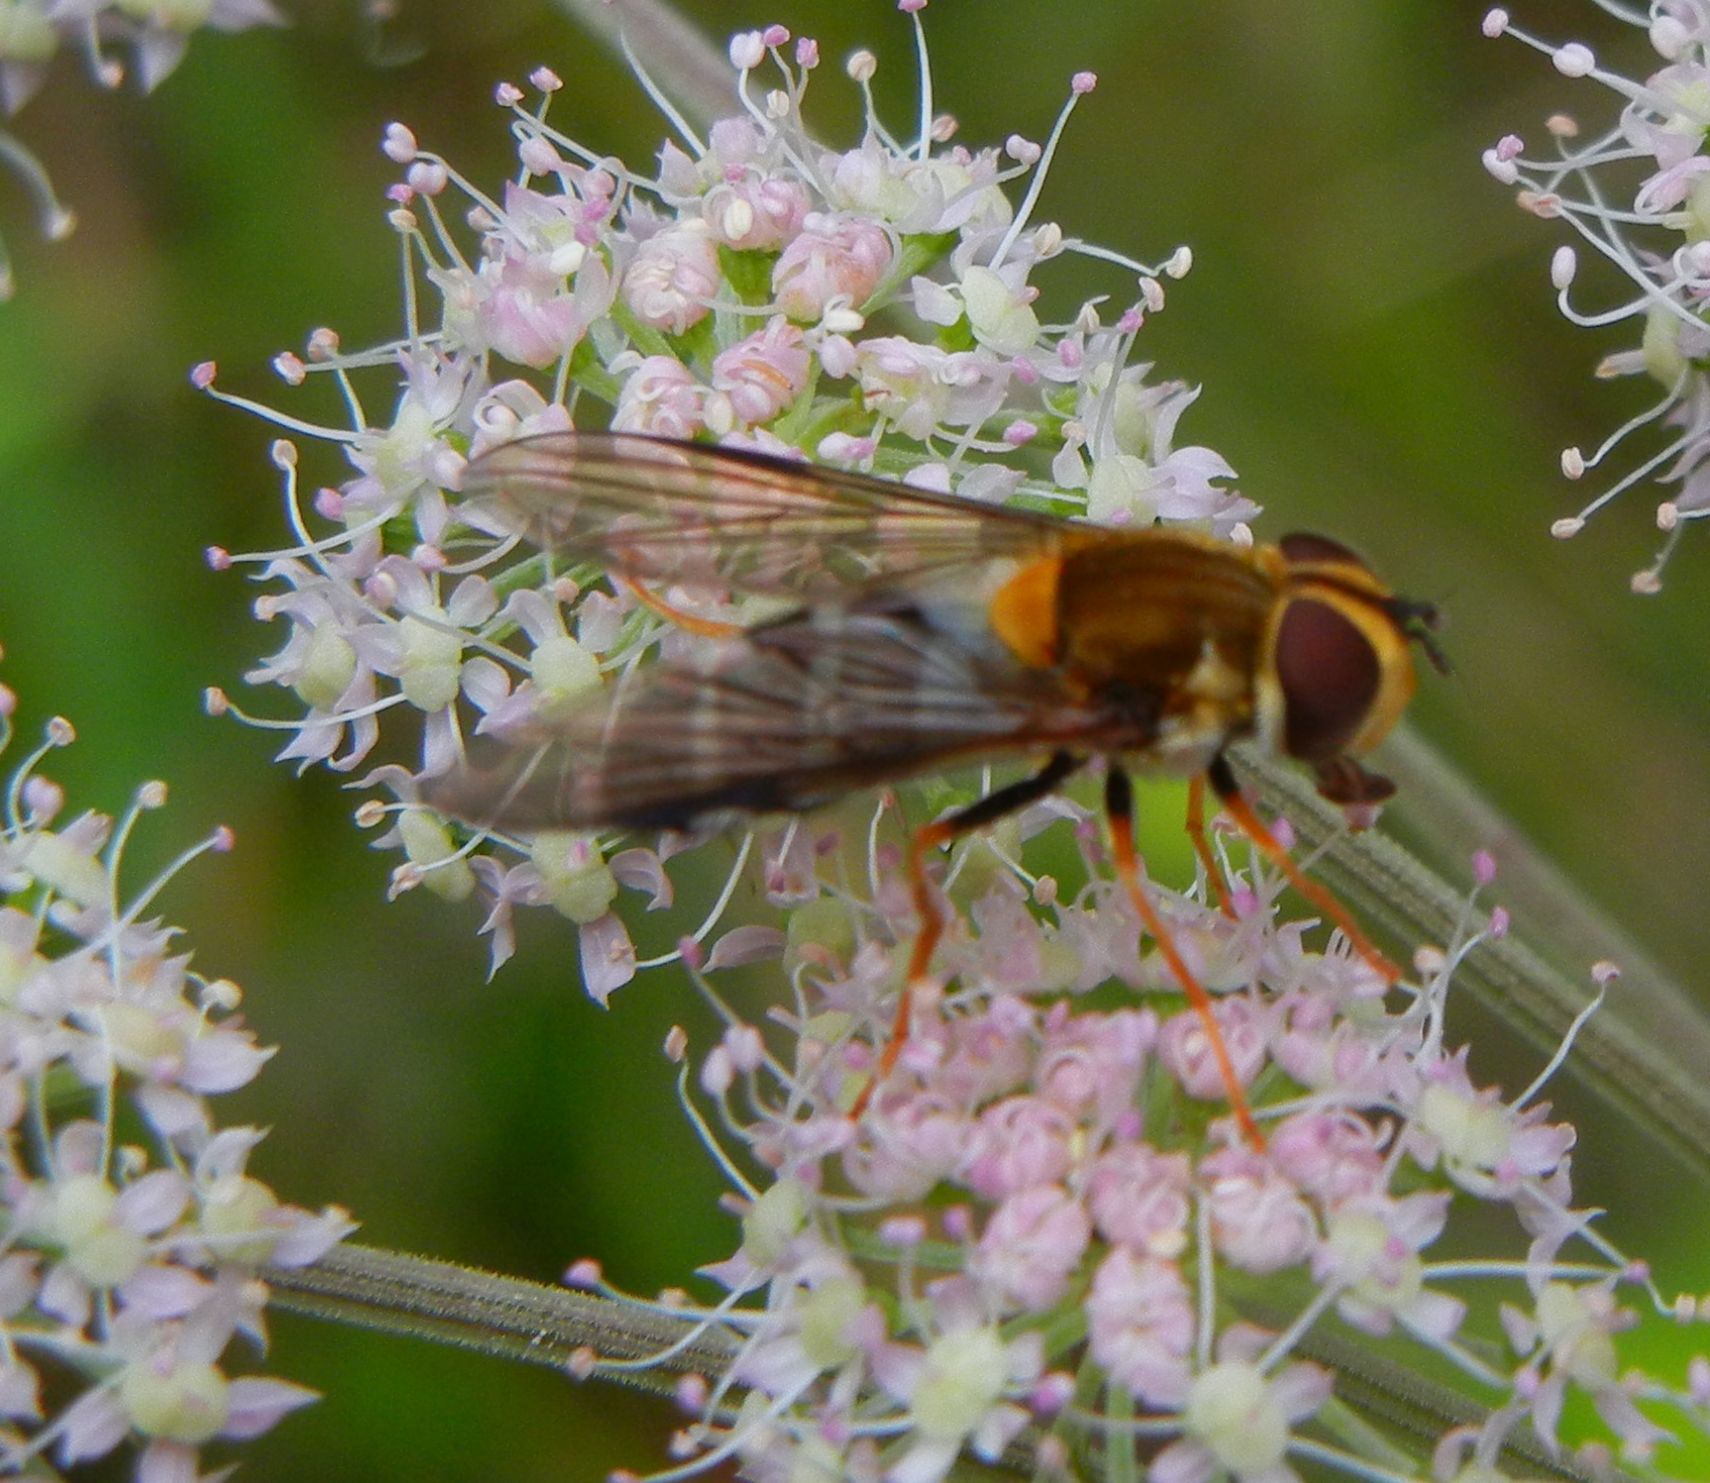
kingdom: Animalia
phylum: Arthropoda
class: Insecta
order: Diptera
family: Syrphidae
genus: Leucozona
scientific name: Leucozona glaucia
